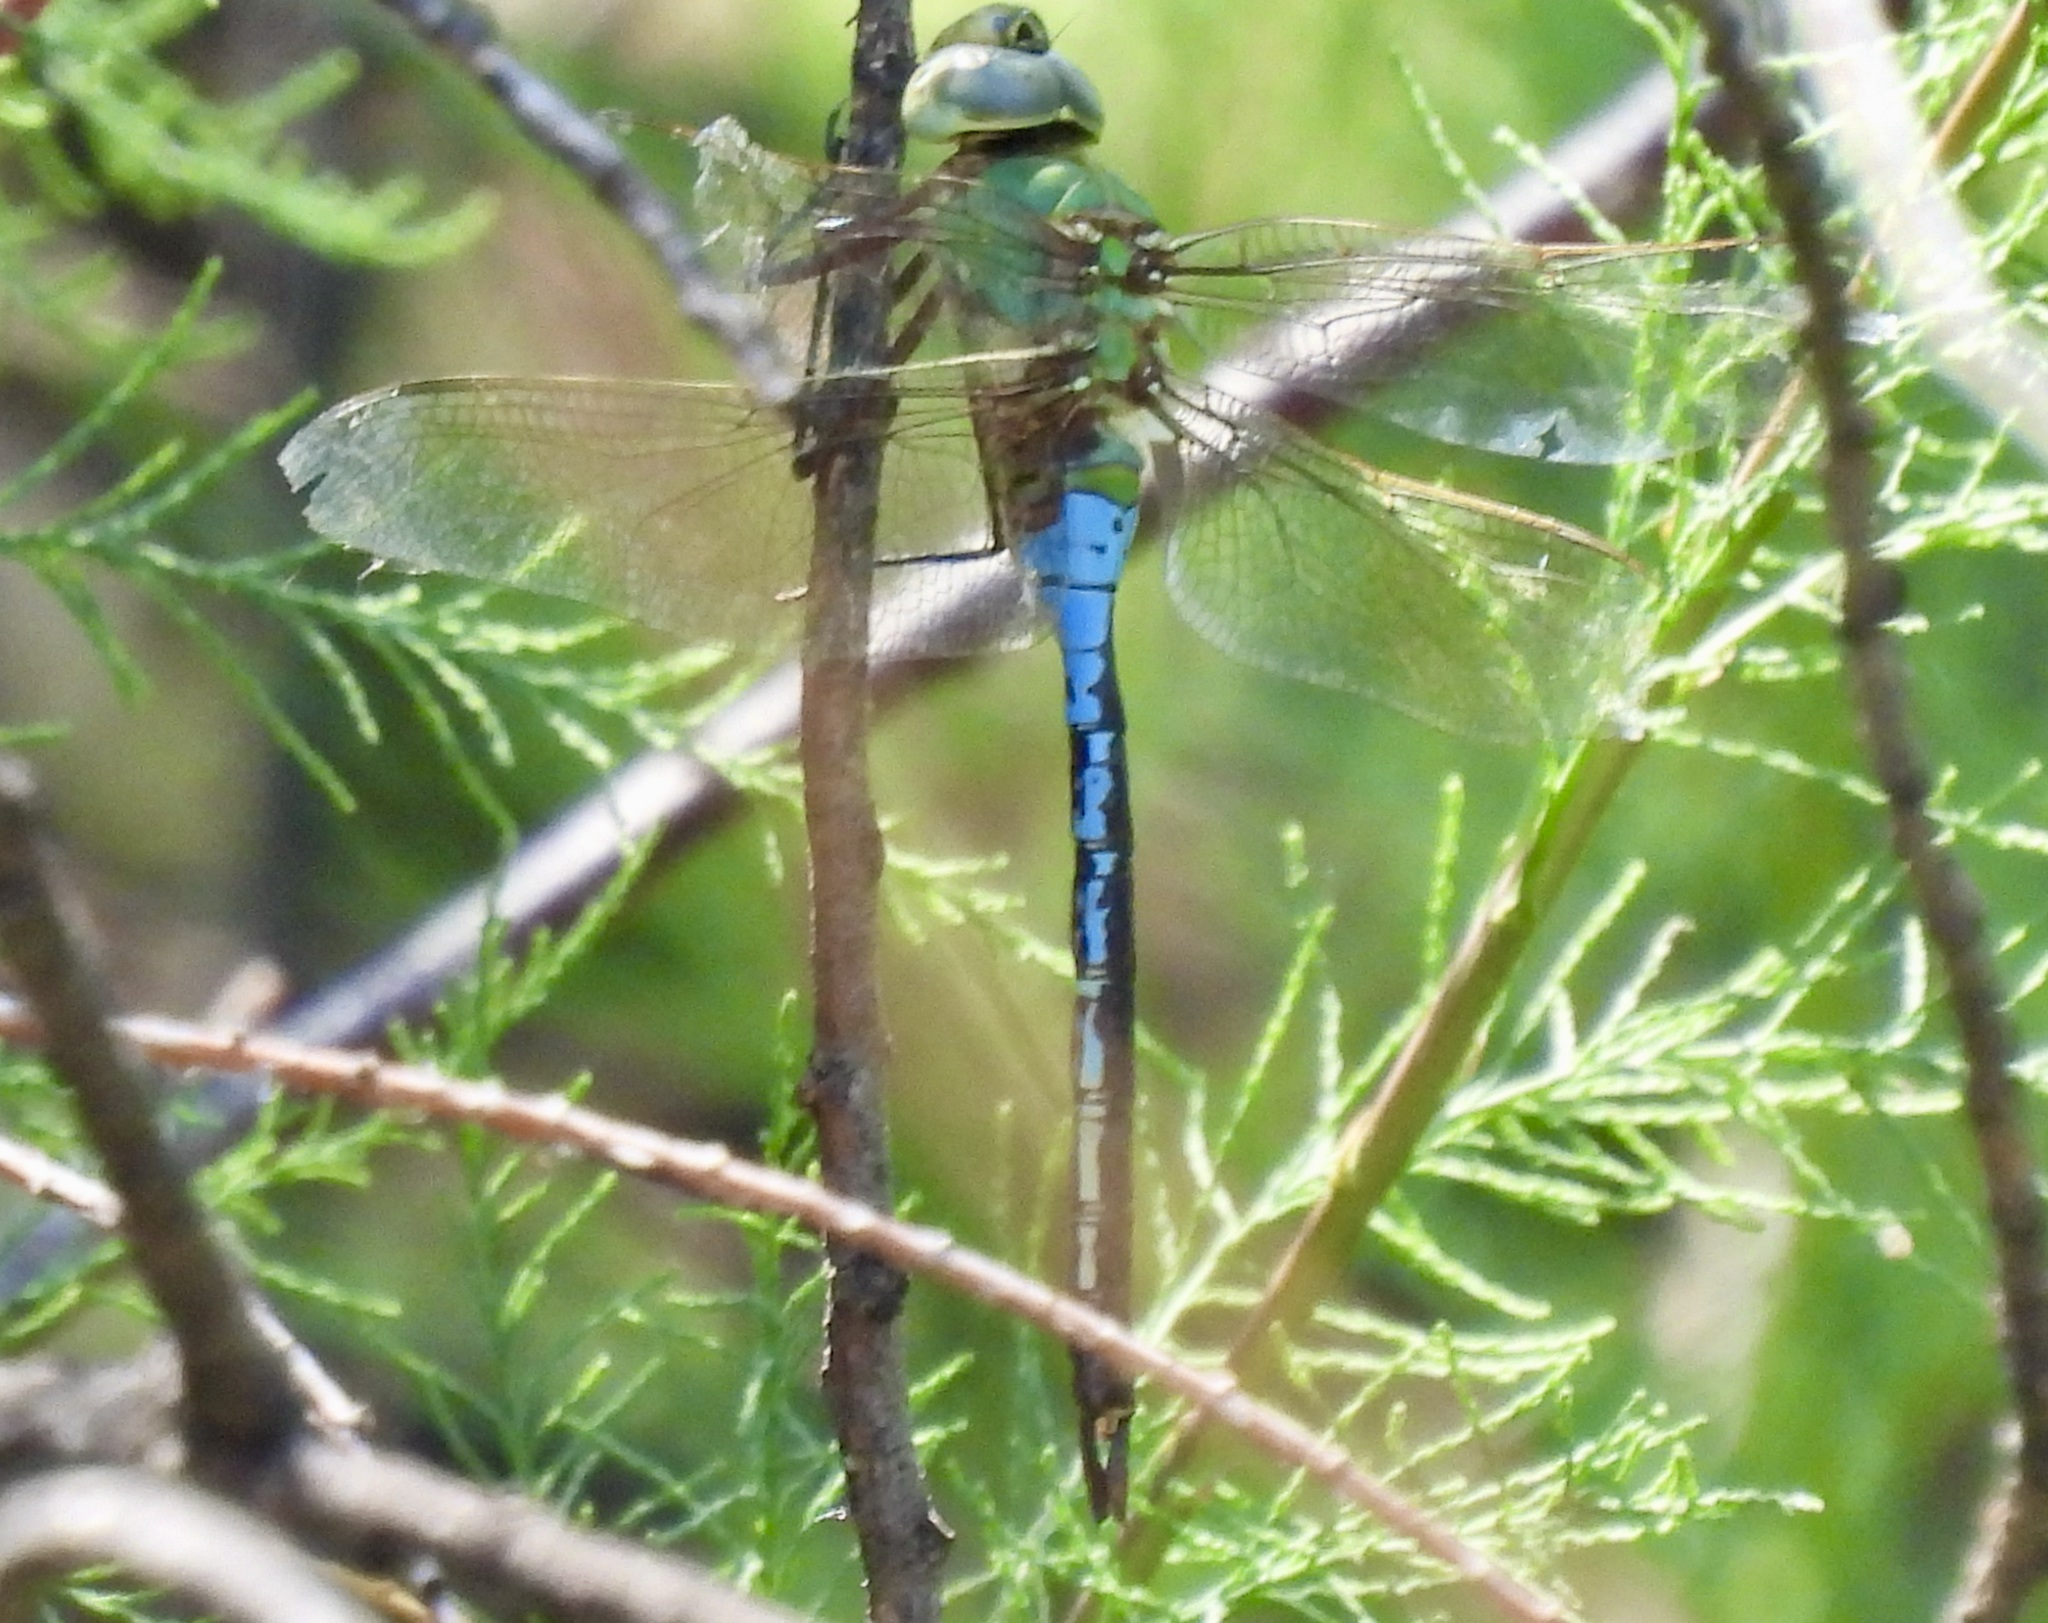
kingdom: Animalia
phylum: Arthropoda
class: Insecta
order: Odonata
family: Aeshnidae
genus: Anax
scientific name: Anax junius
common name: Common green darner
